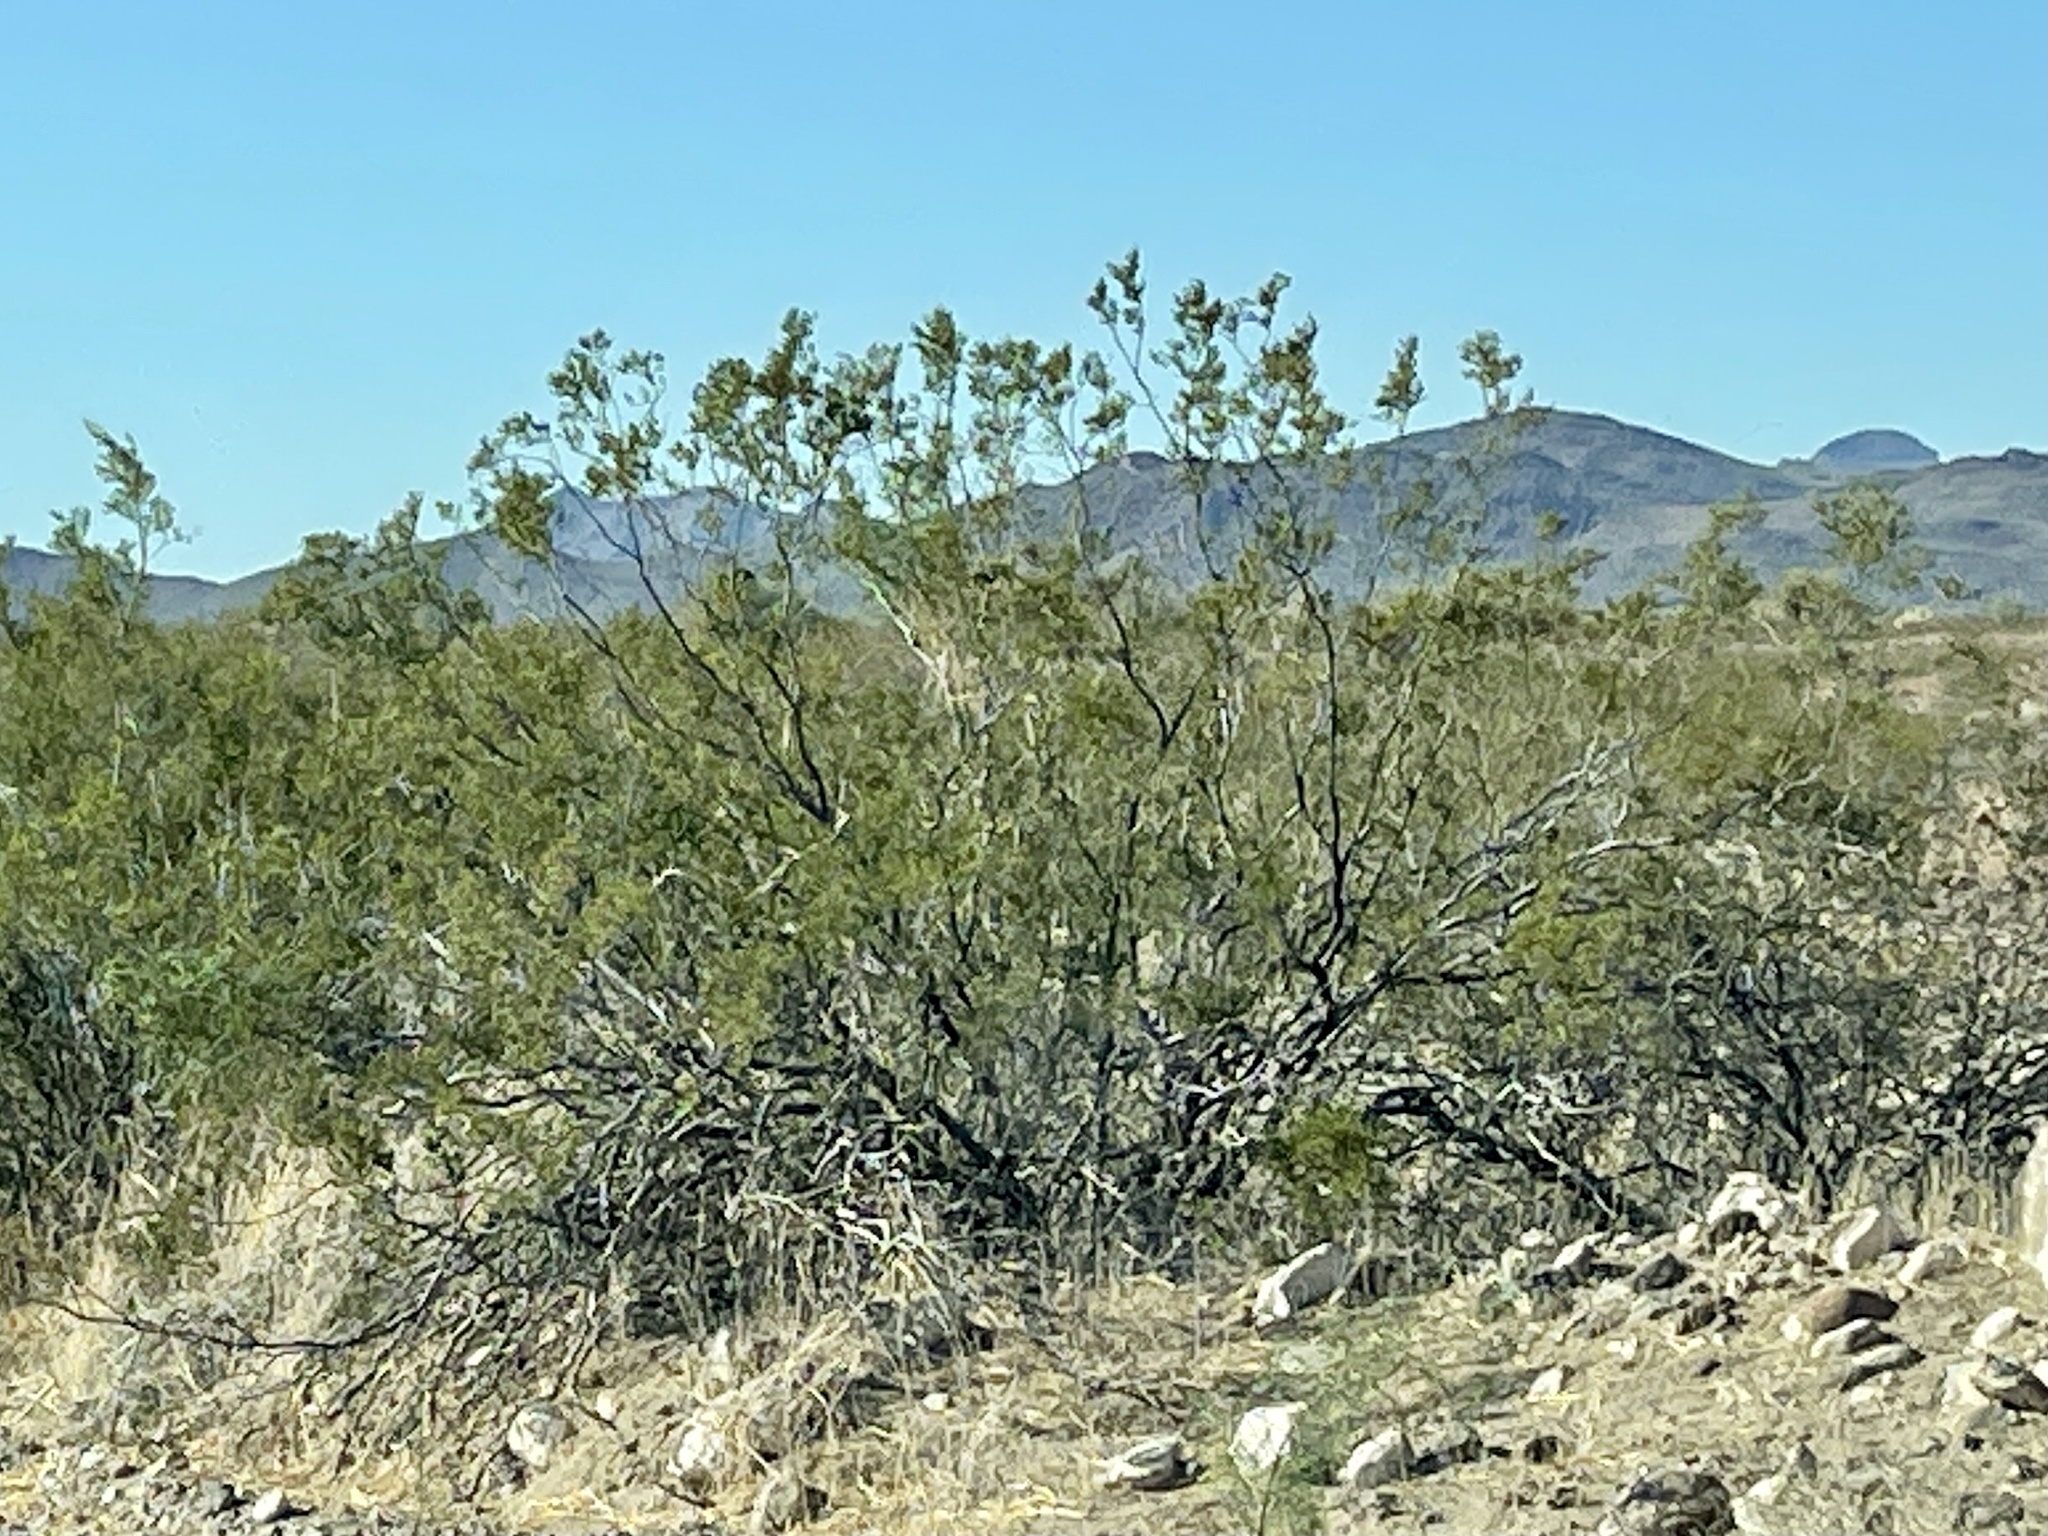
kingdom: Plantae
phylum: Tracheophyta
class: Magnoliopsida
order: Zygophyllales
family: Zygophyllaceae
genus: Larrea
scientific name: Larrea tridentata
